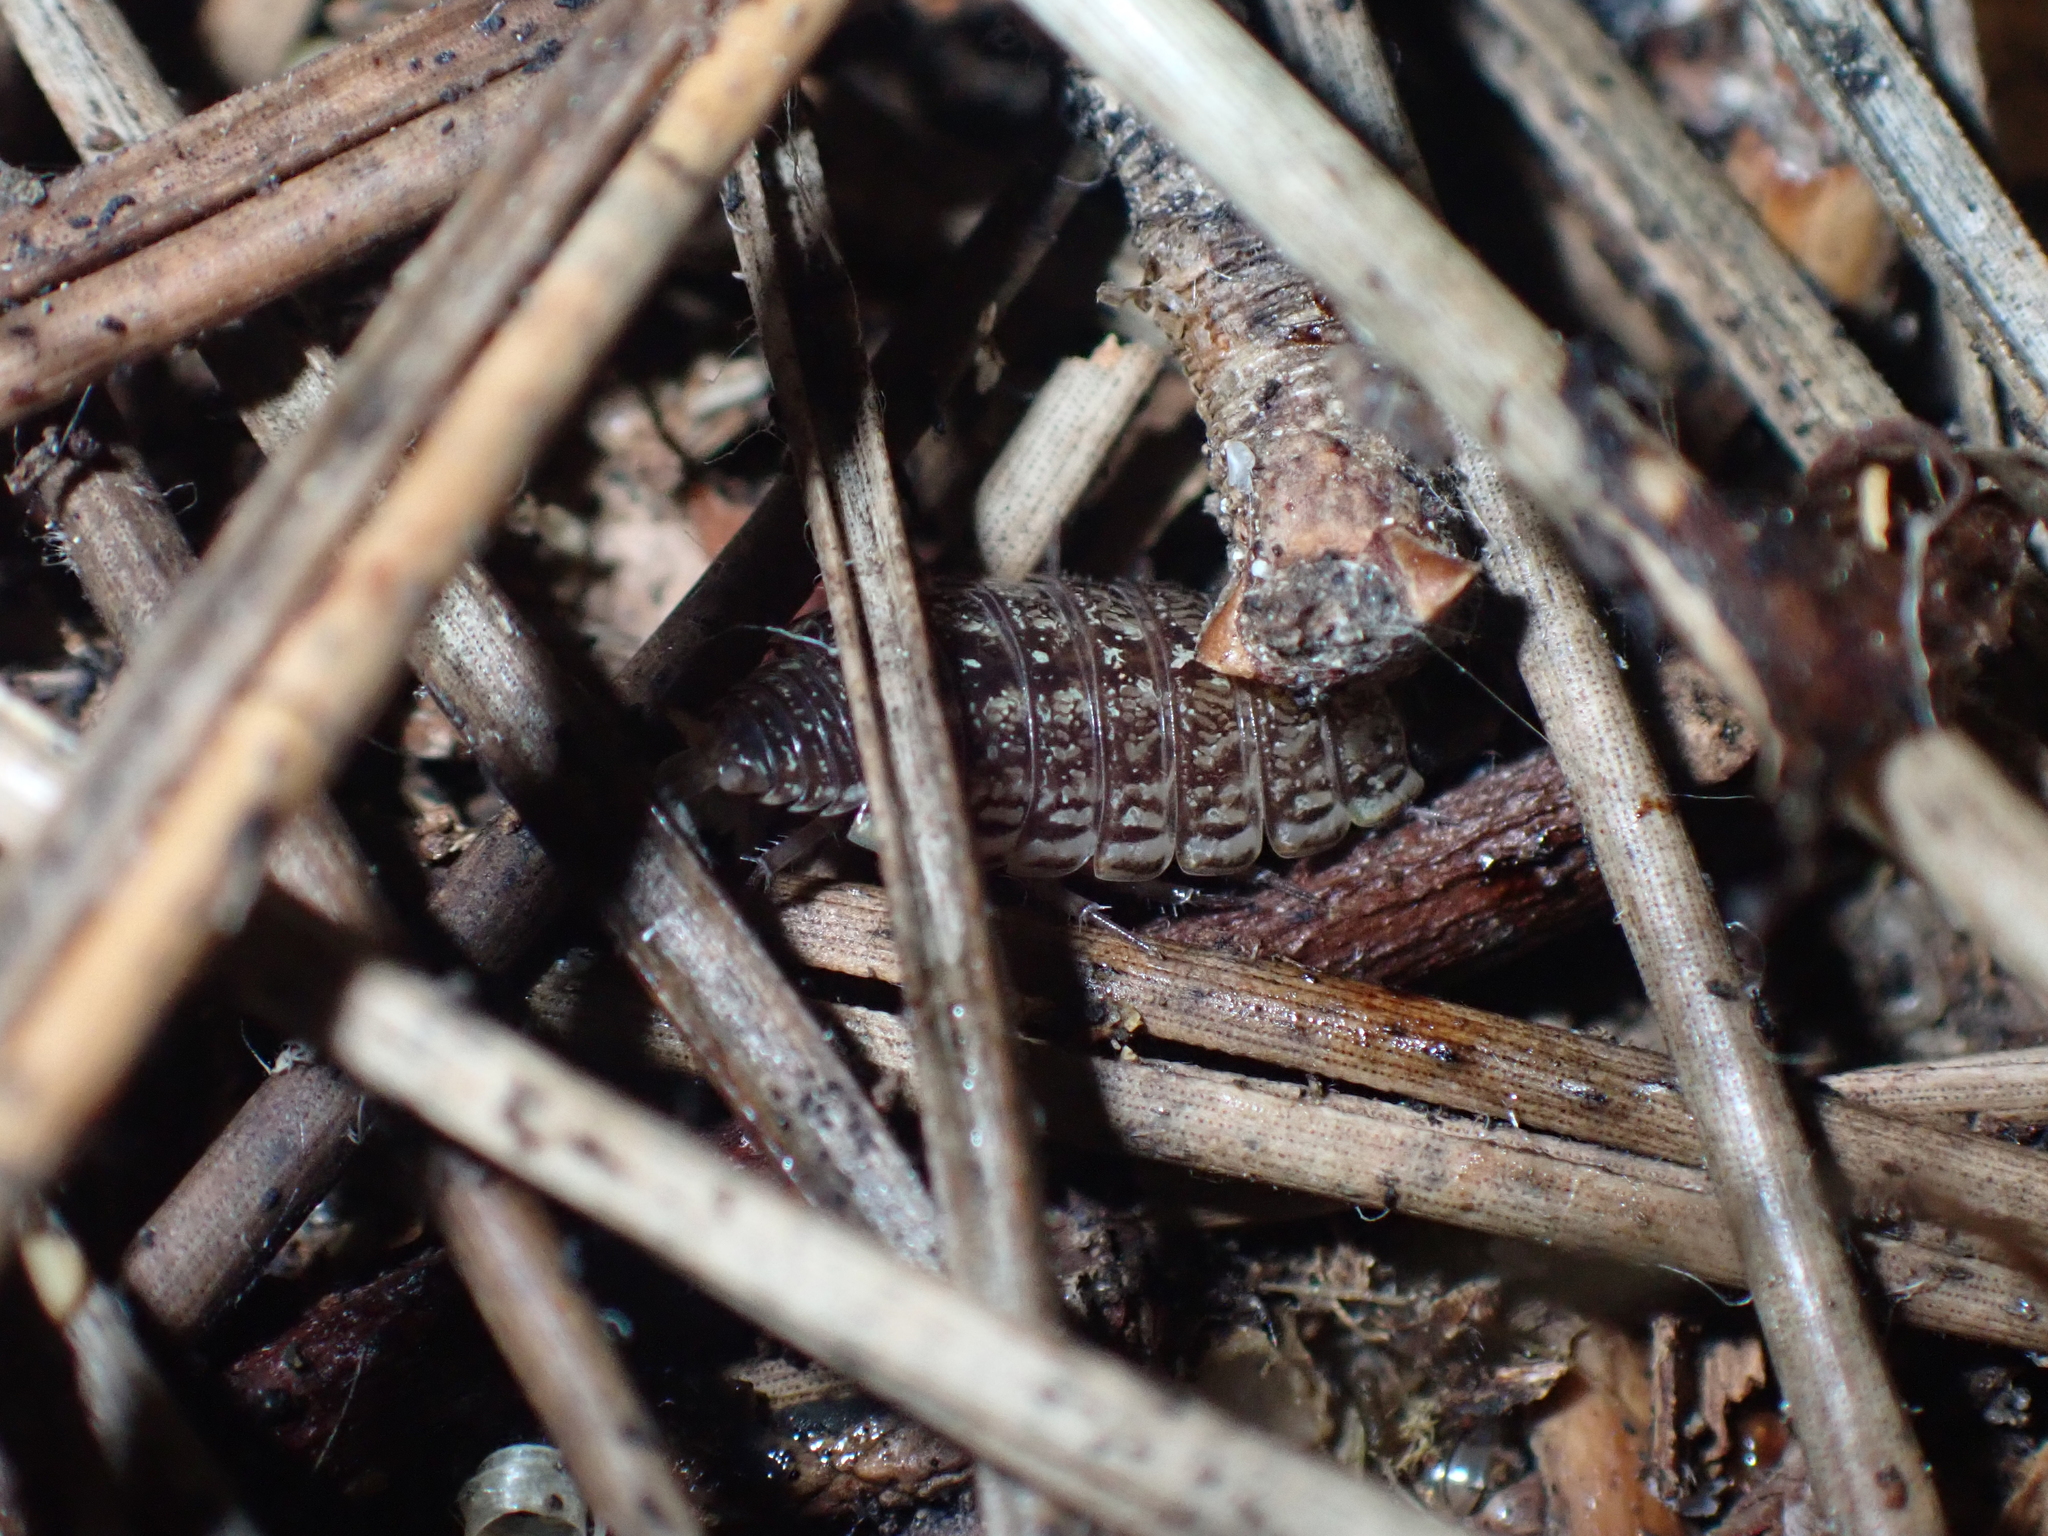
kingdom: Animalia
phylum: Arthropoda
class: Malacostraca
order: Isopoda
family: Philosciidae
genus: Philoscia
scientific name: Philoscia muscorum
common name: Common striped woodlouse
